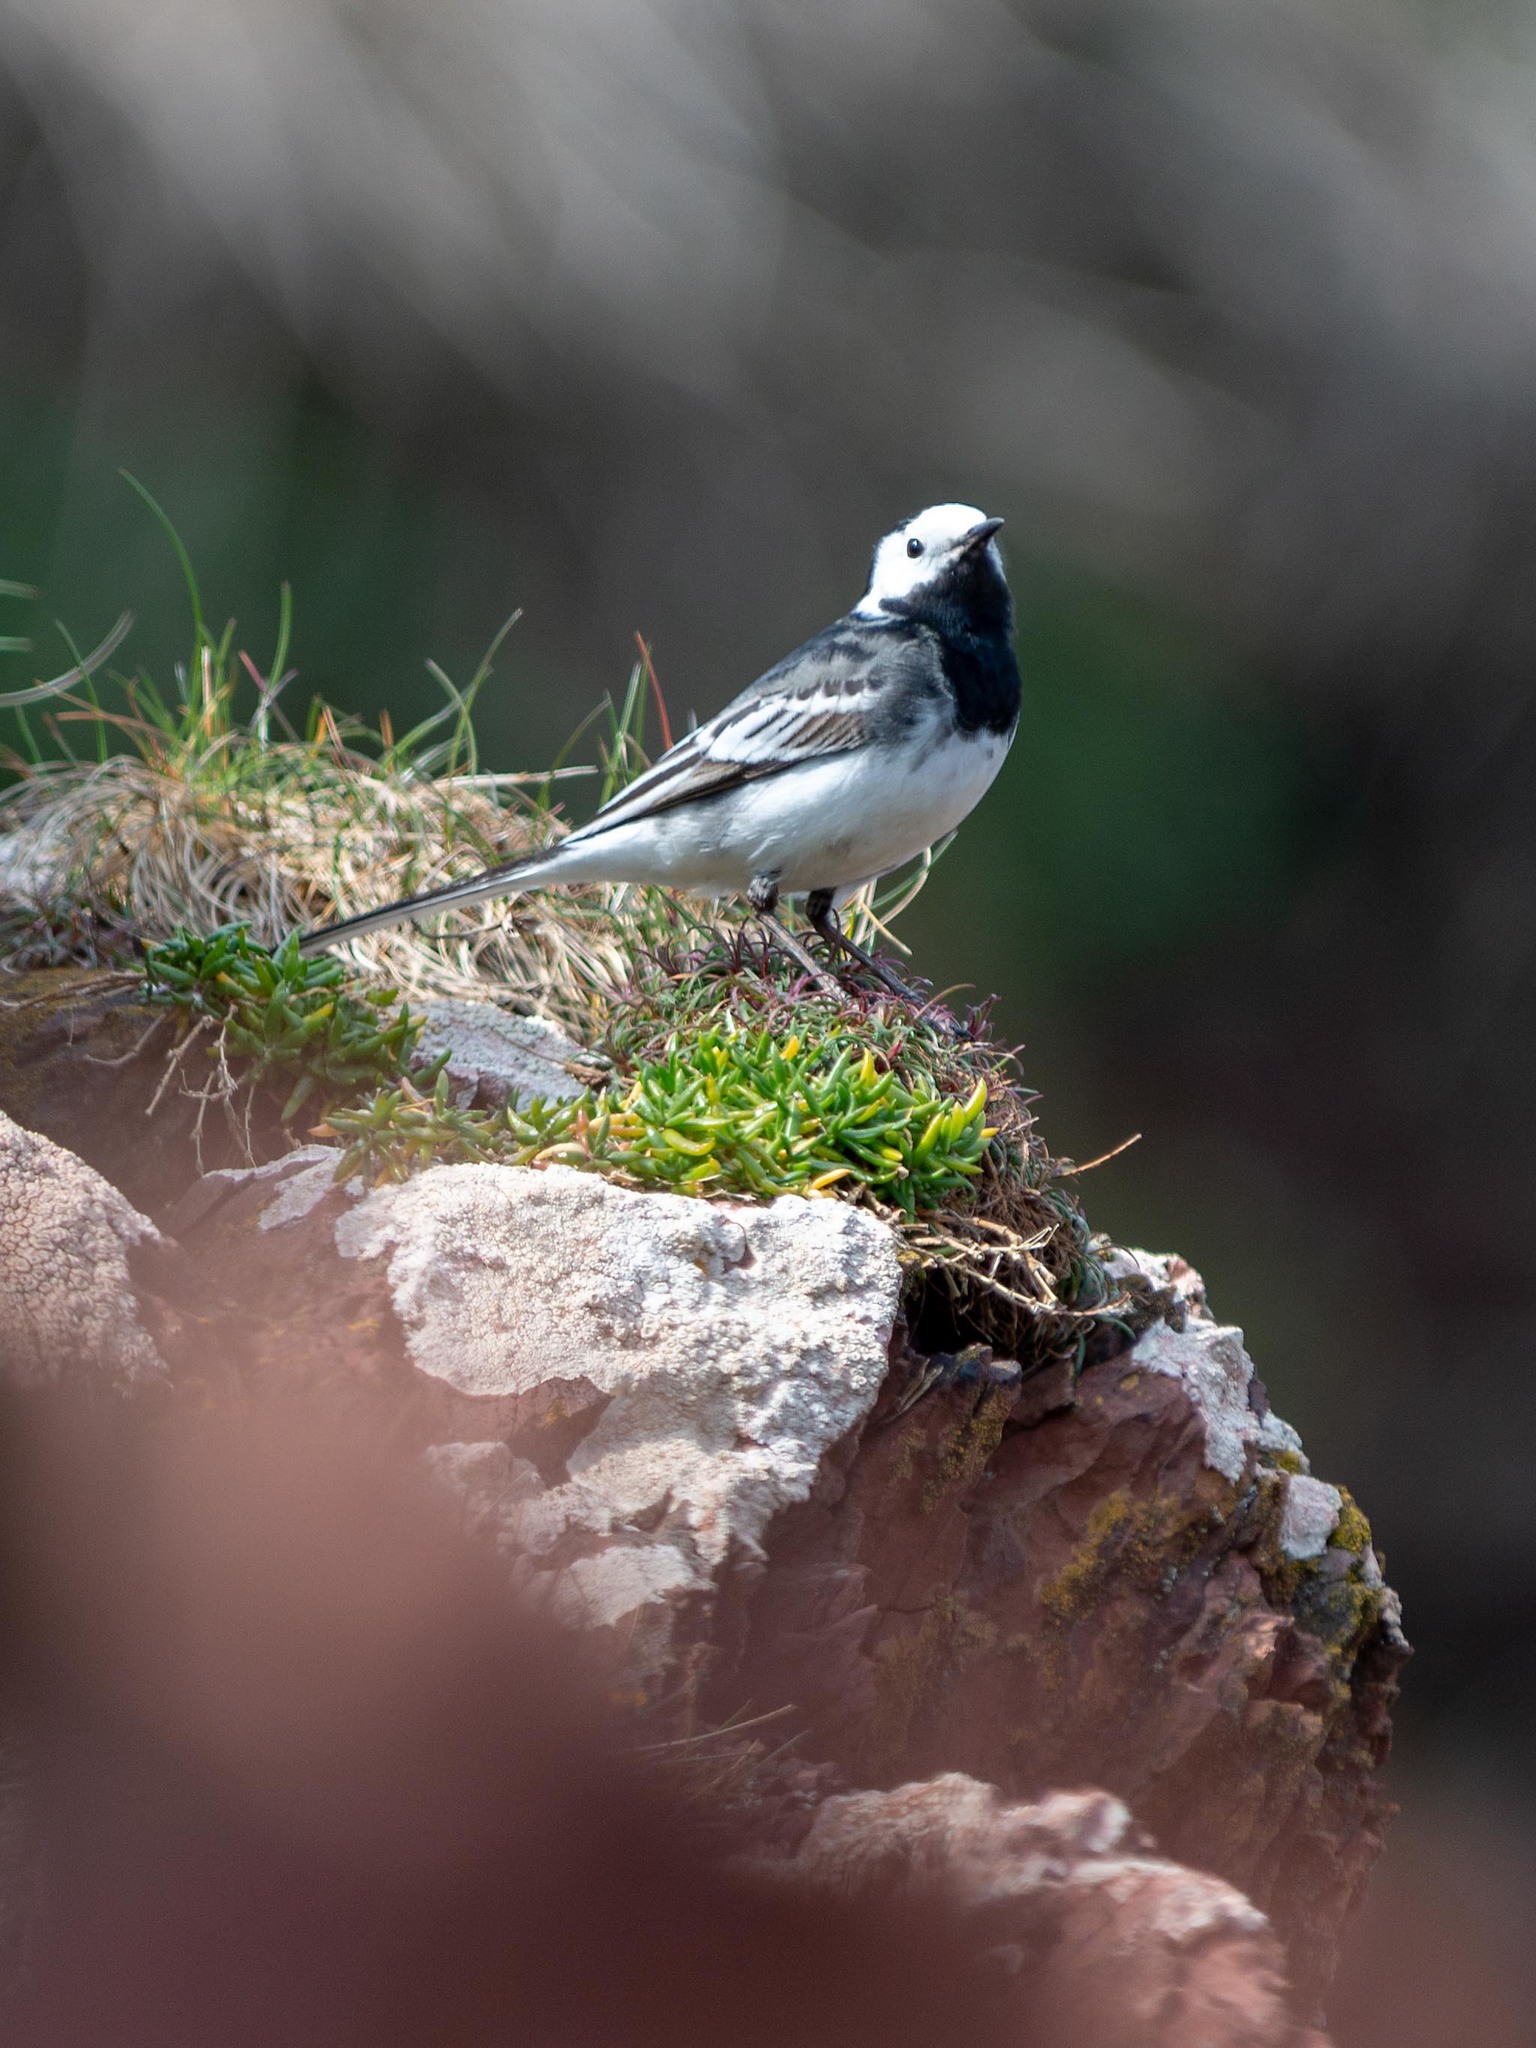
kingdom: Animalia
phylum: Chordata
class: Aves
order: Passeriformes
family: Motacillidae
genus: Motacilla
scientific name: Motacilla alba
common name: White wagtail
